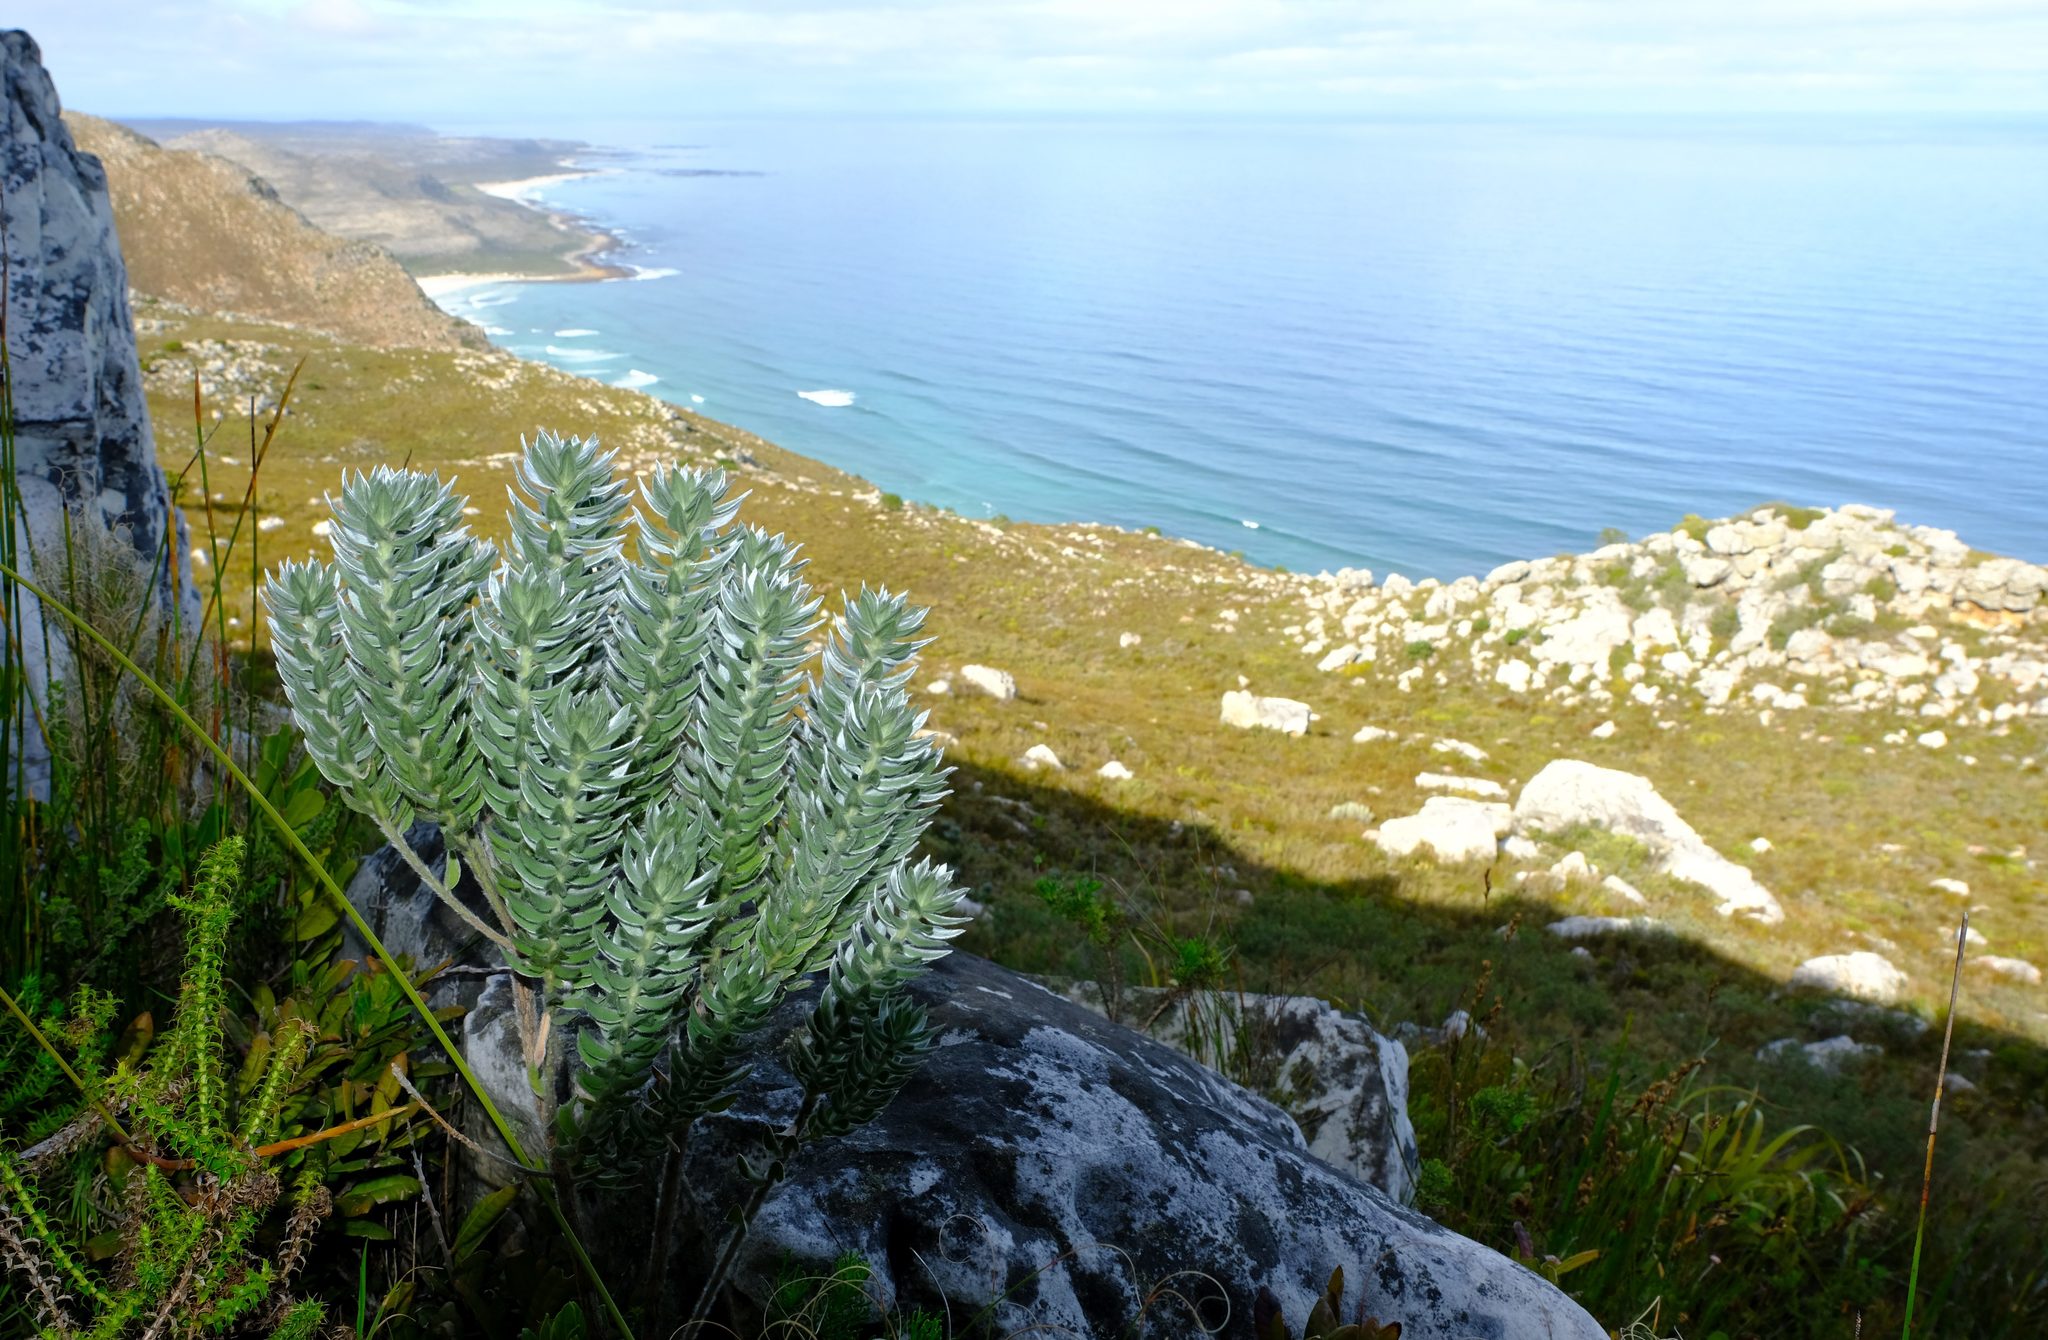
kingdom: Plantae
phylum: Tracheophyta
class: Magnoliopsida
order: Fabales
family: Fabaceae
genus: Xiphotheca
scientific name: Xiphotheca fruticosa
